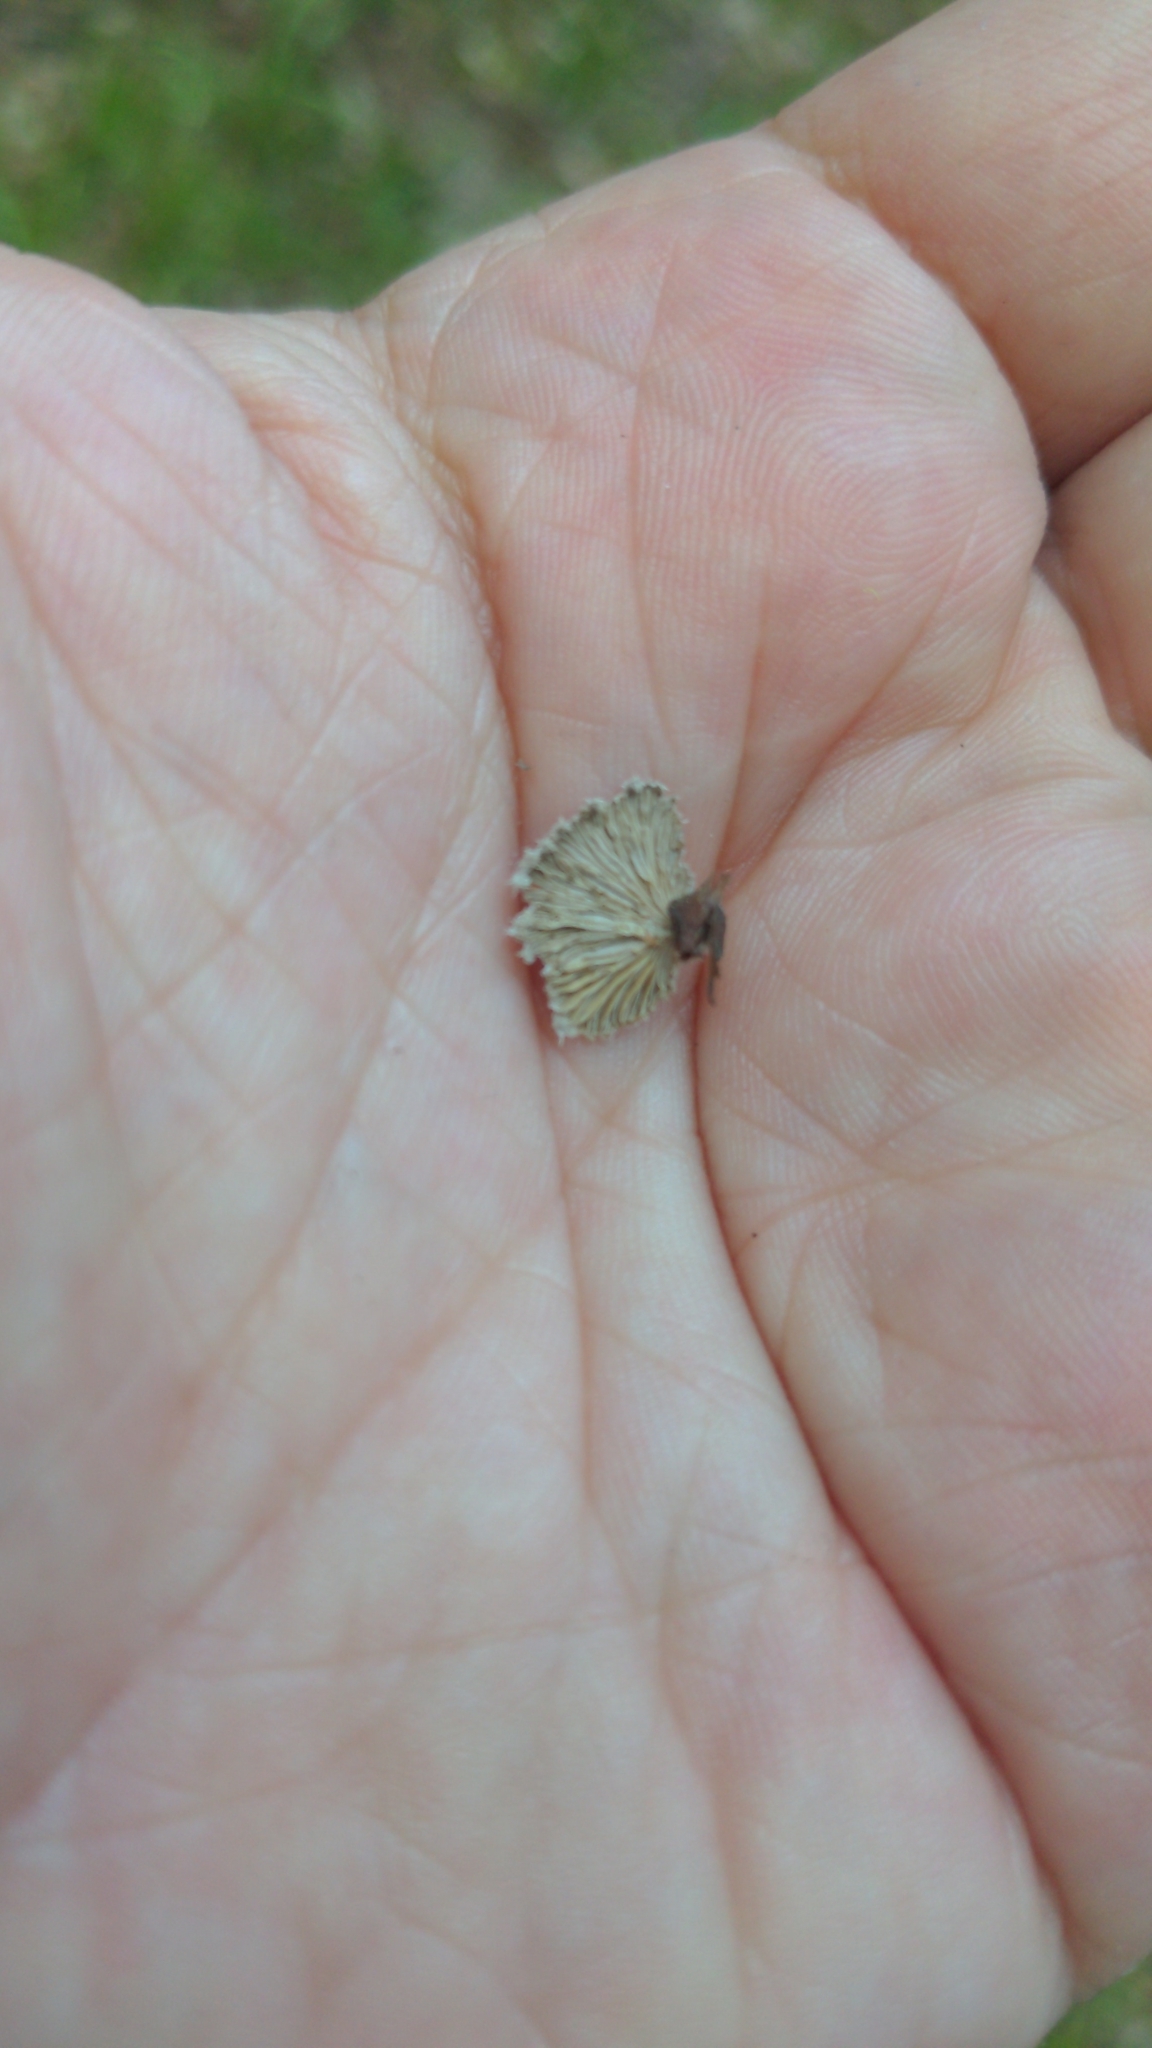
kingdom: Fungi
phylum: Basidiomycota
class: Agaricomycetes
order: Agaricales
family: Schizophyllaceae
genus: Schizophyllum
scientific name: Schizophyllum commune
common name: Common porecrust
